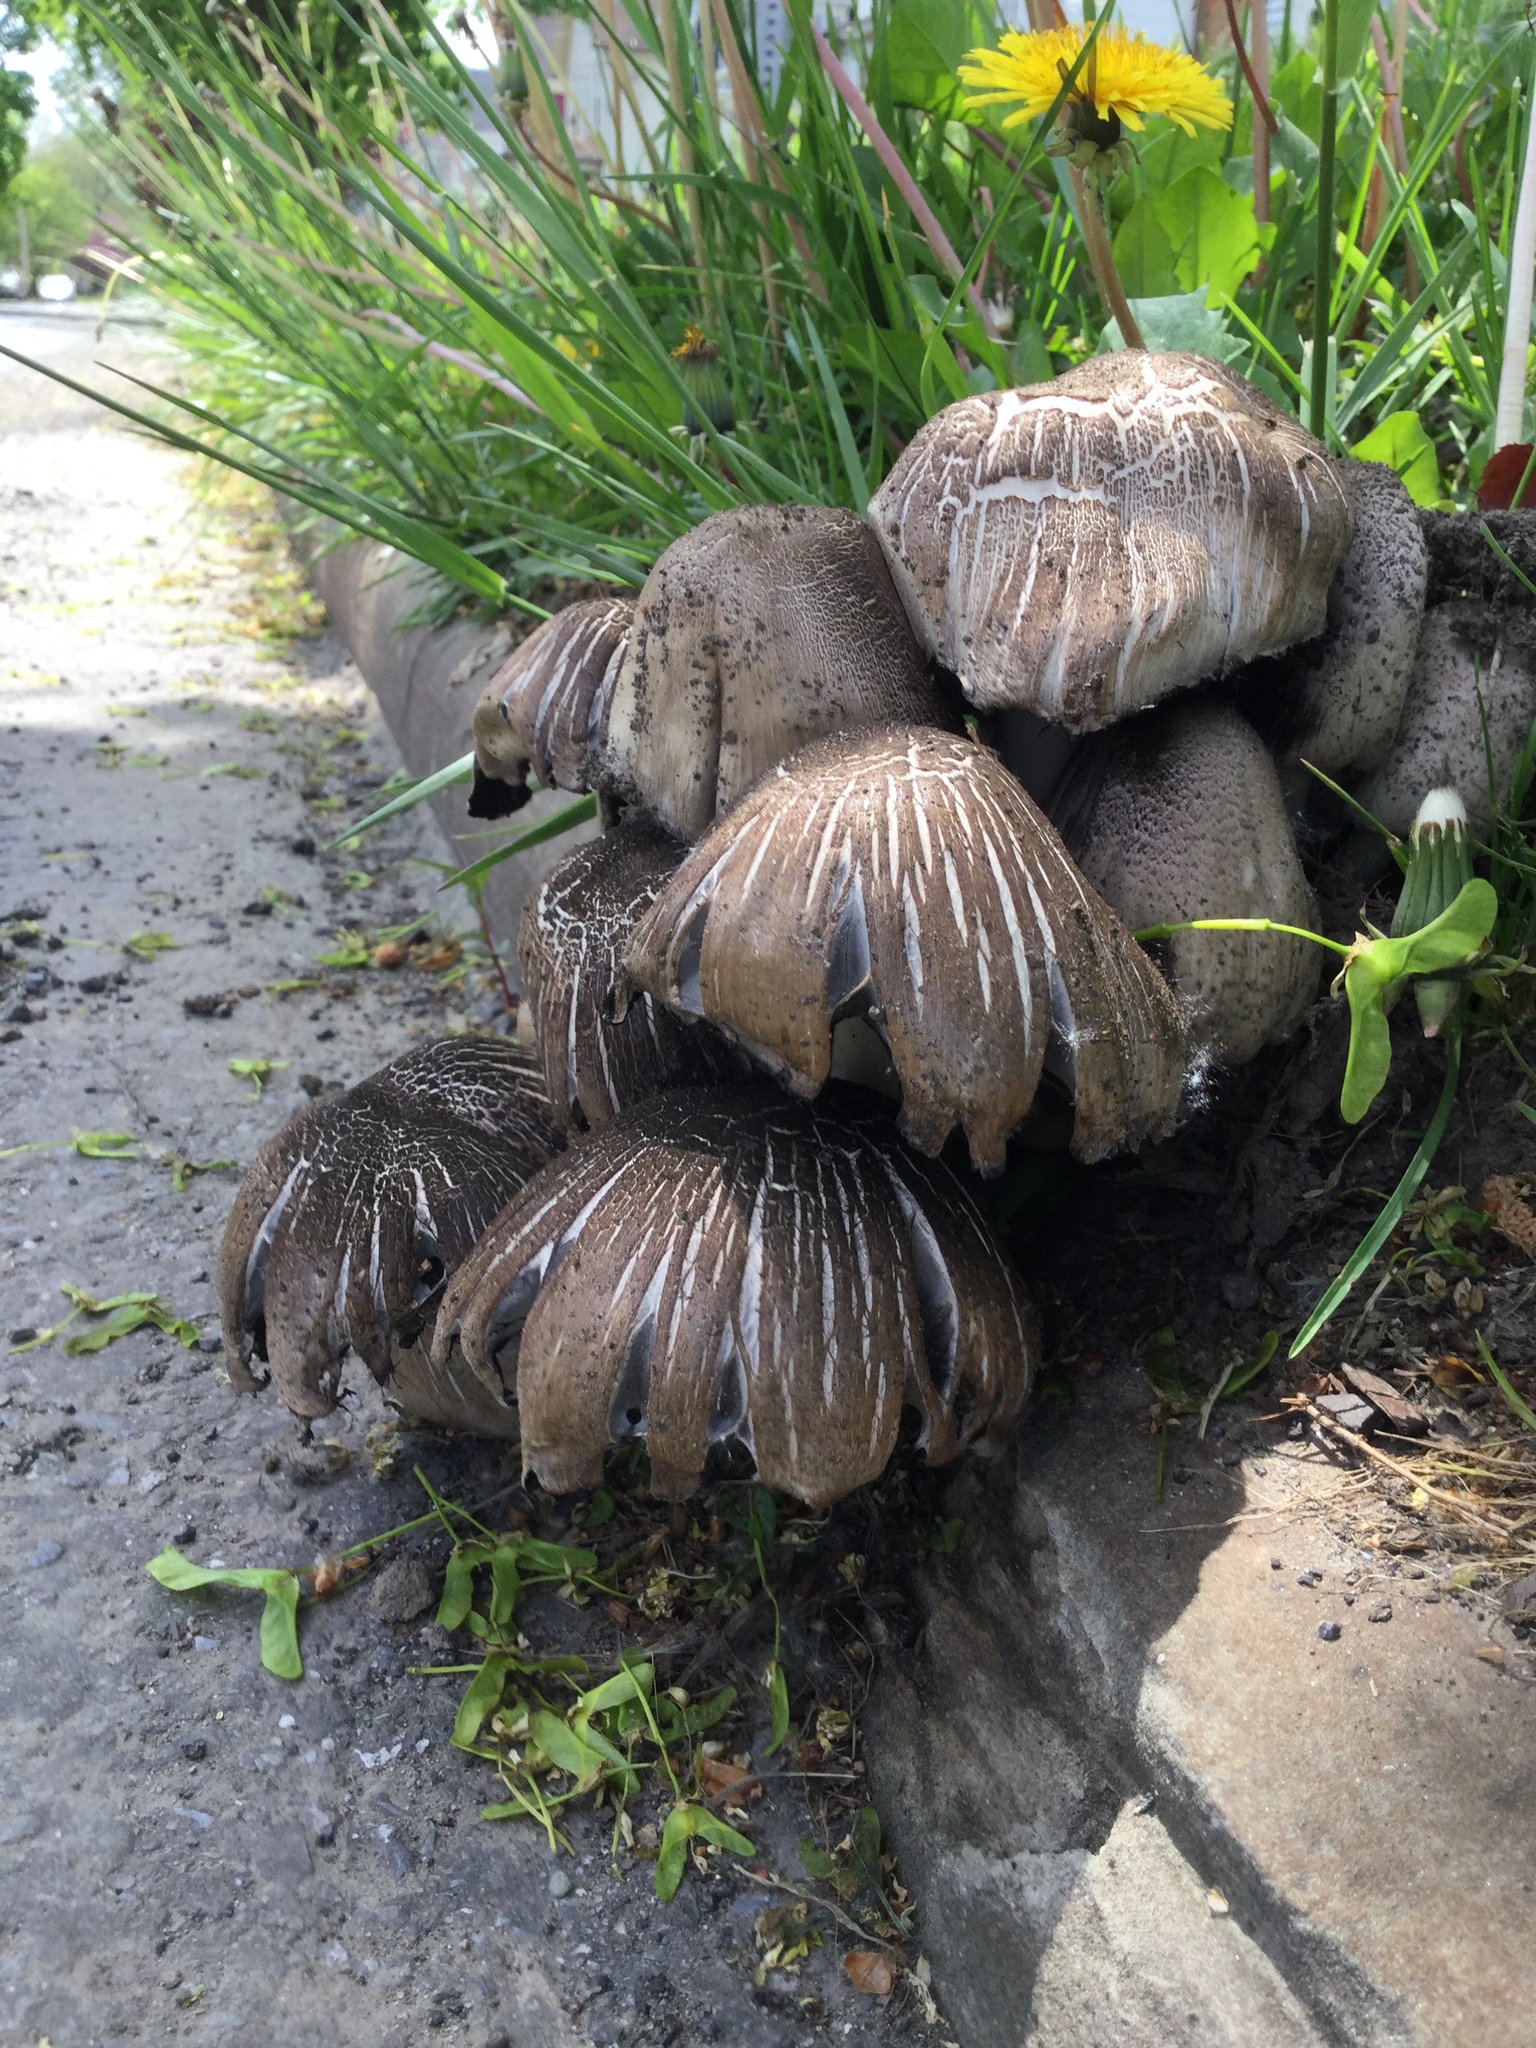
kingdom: Fungi
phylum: Basidiomycota
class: Agaricomycetes
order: Agaricales
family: Psathyrellaceae
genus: Coprinopsis
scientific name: Coprinopsis atramentaria
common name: Common ink-cap
